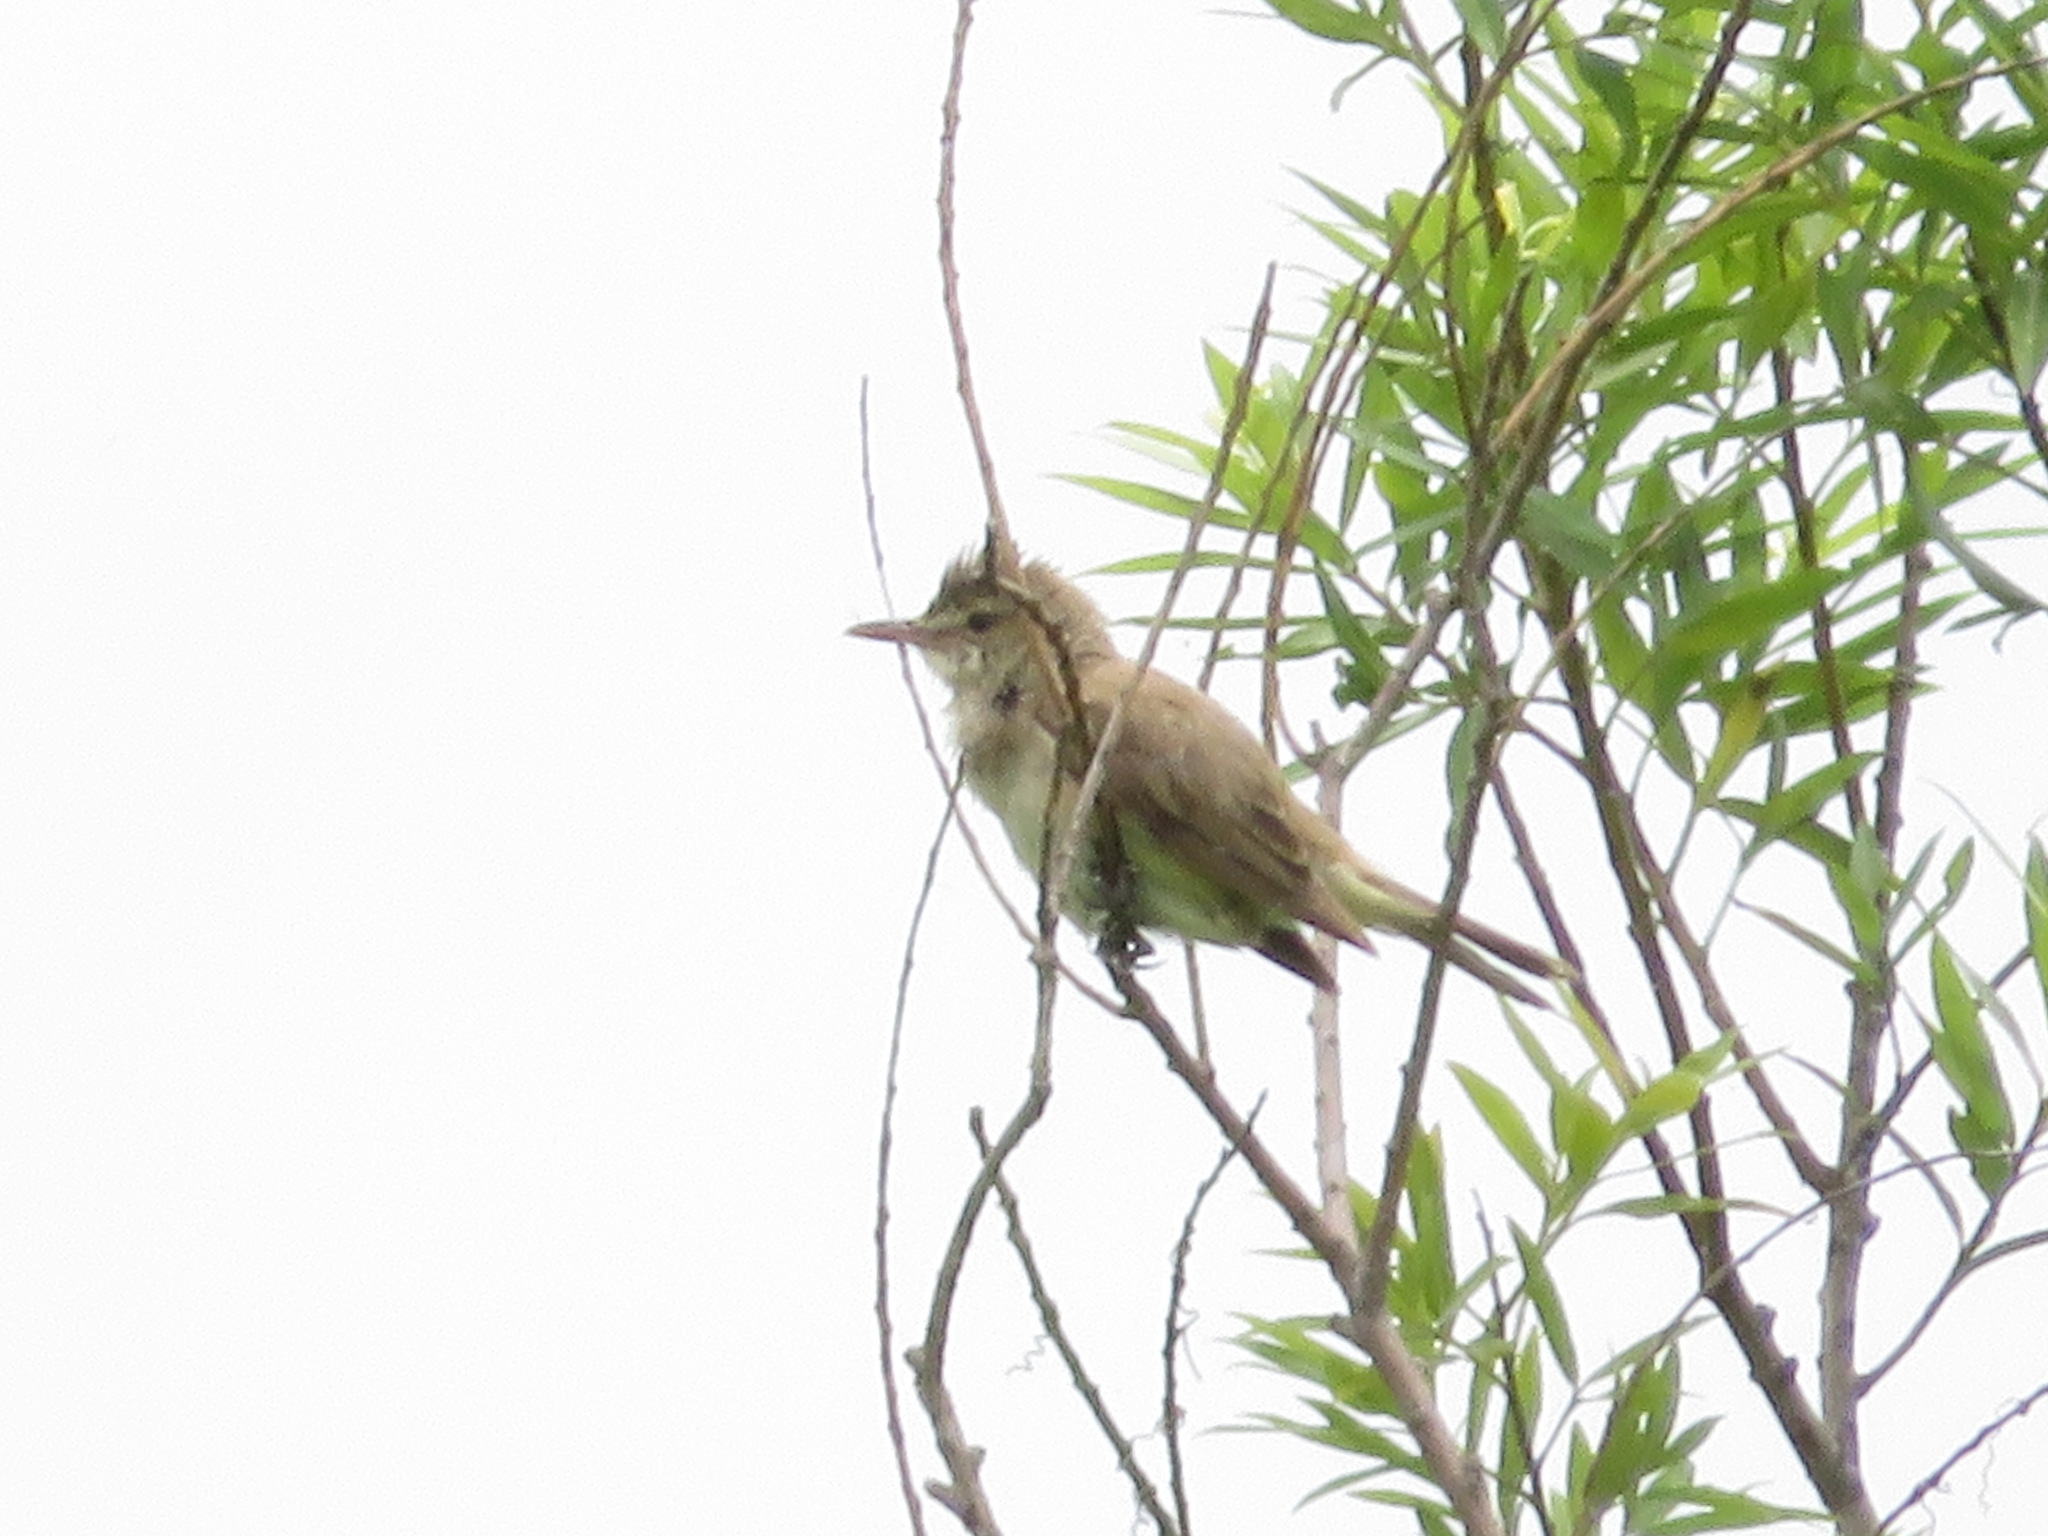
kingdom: Animalia
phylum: Chordata
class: Aves
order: Passeriformes
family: Acrocephalidae
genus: Acrocephalus
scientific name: Acrocephalus orientalis
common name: Oriental reed warbler
